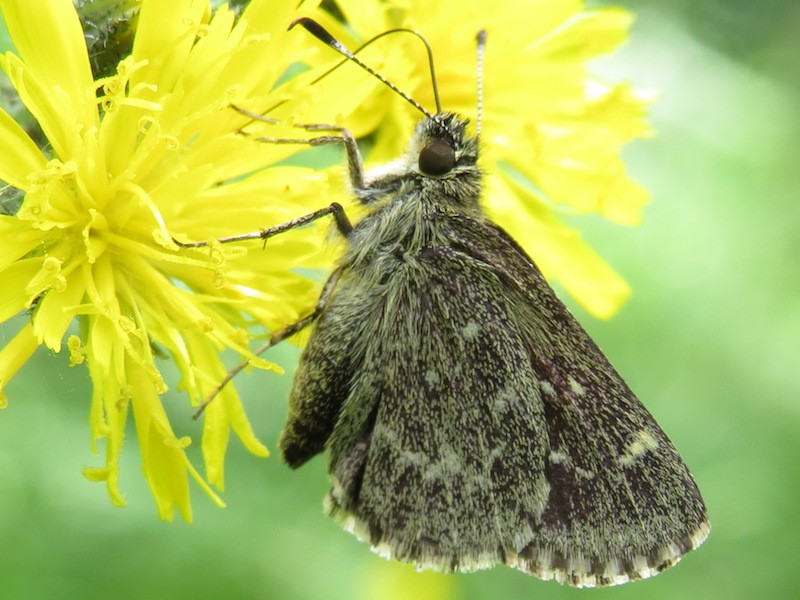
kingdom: Animalia
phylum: Arthropoda
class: Insecta
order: Lepidoptera
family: Hesperiidae
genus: Mastor
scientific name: Mastor hegon
